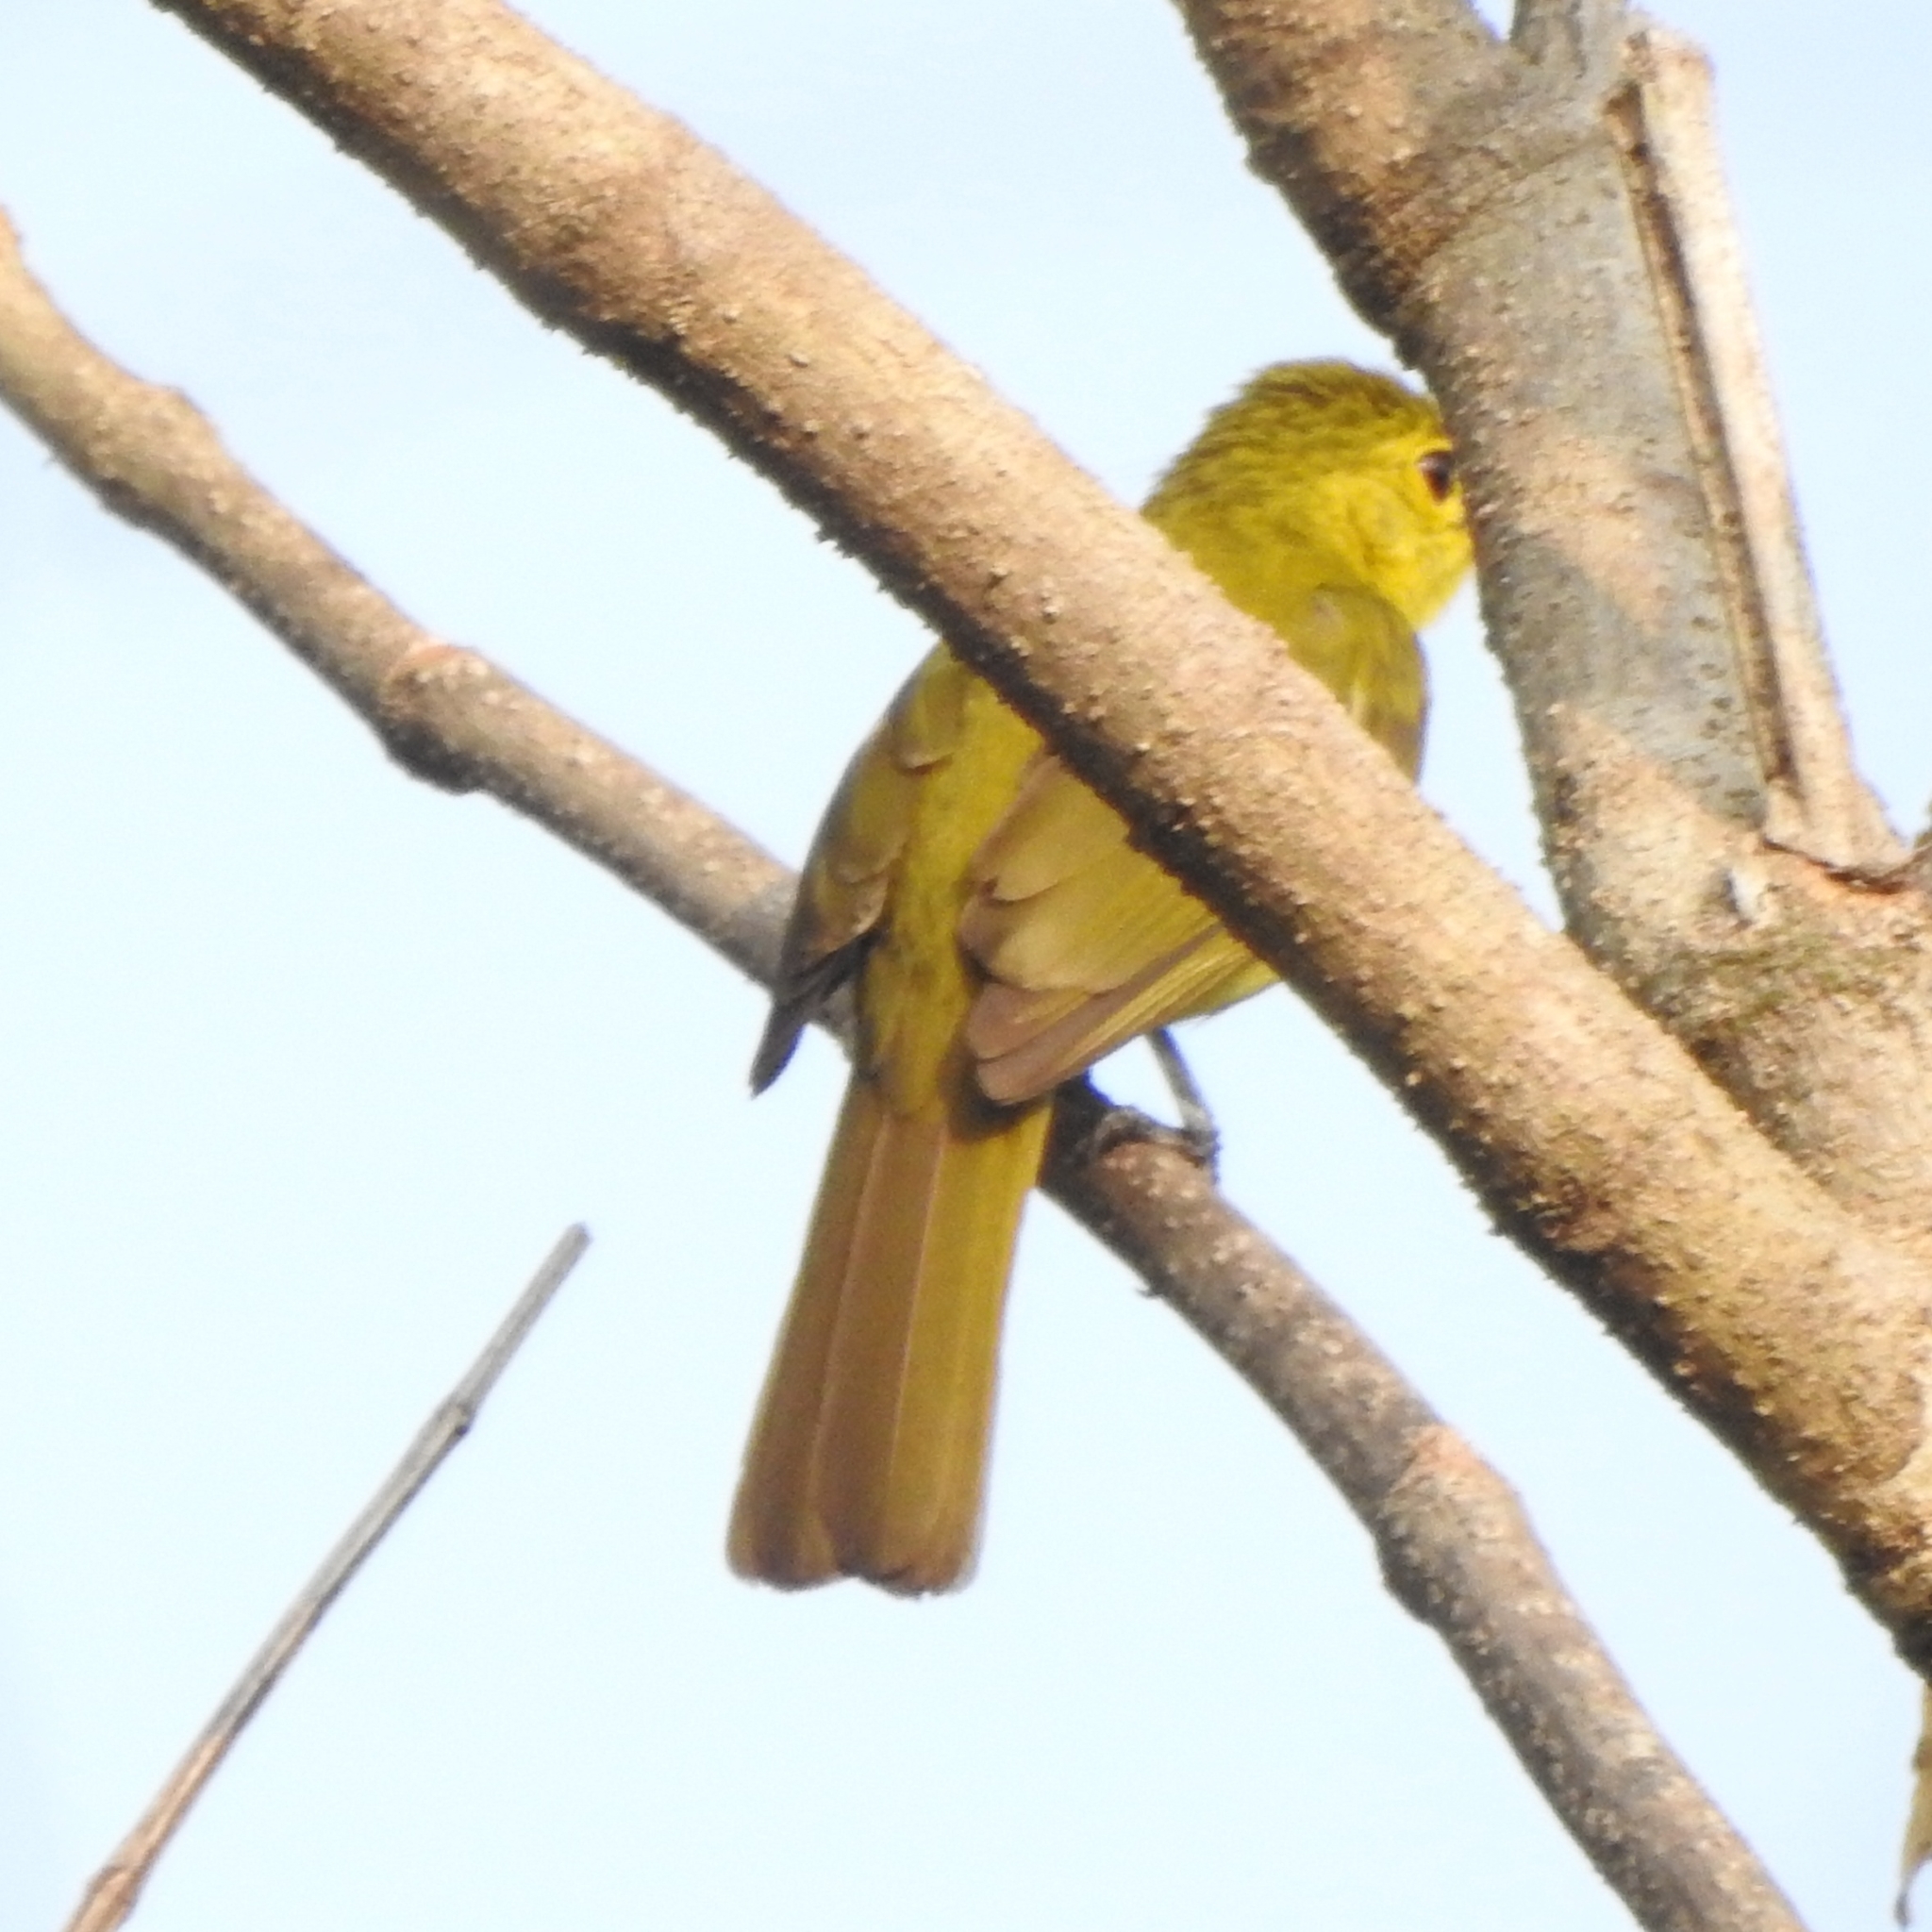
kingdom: Animalia
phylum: Chordata
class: Aves
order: Passeriformes
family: Pycnonotidae
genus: Acritillas
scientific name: Acritillas indica
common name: Yellow-browed bulbul
